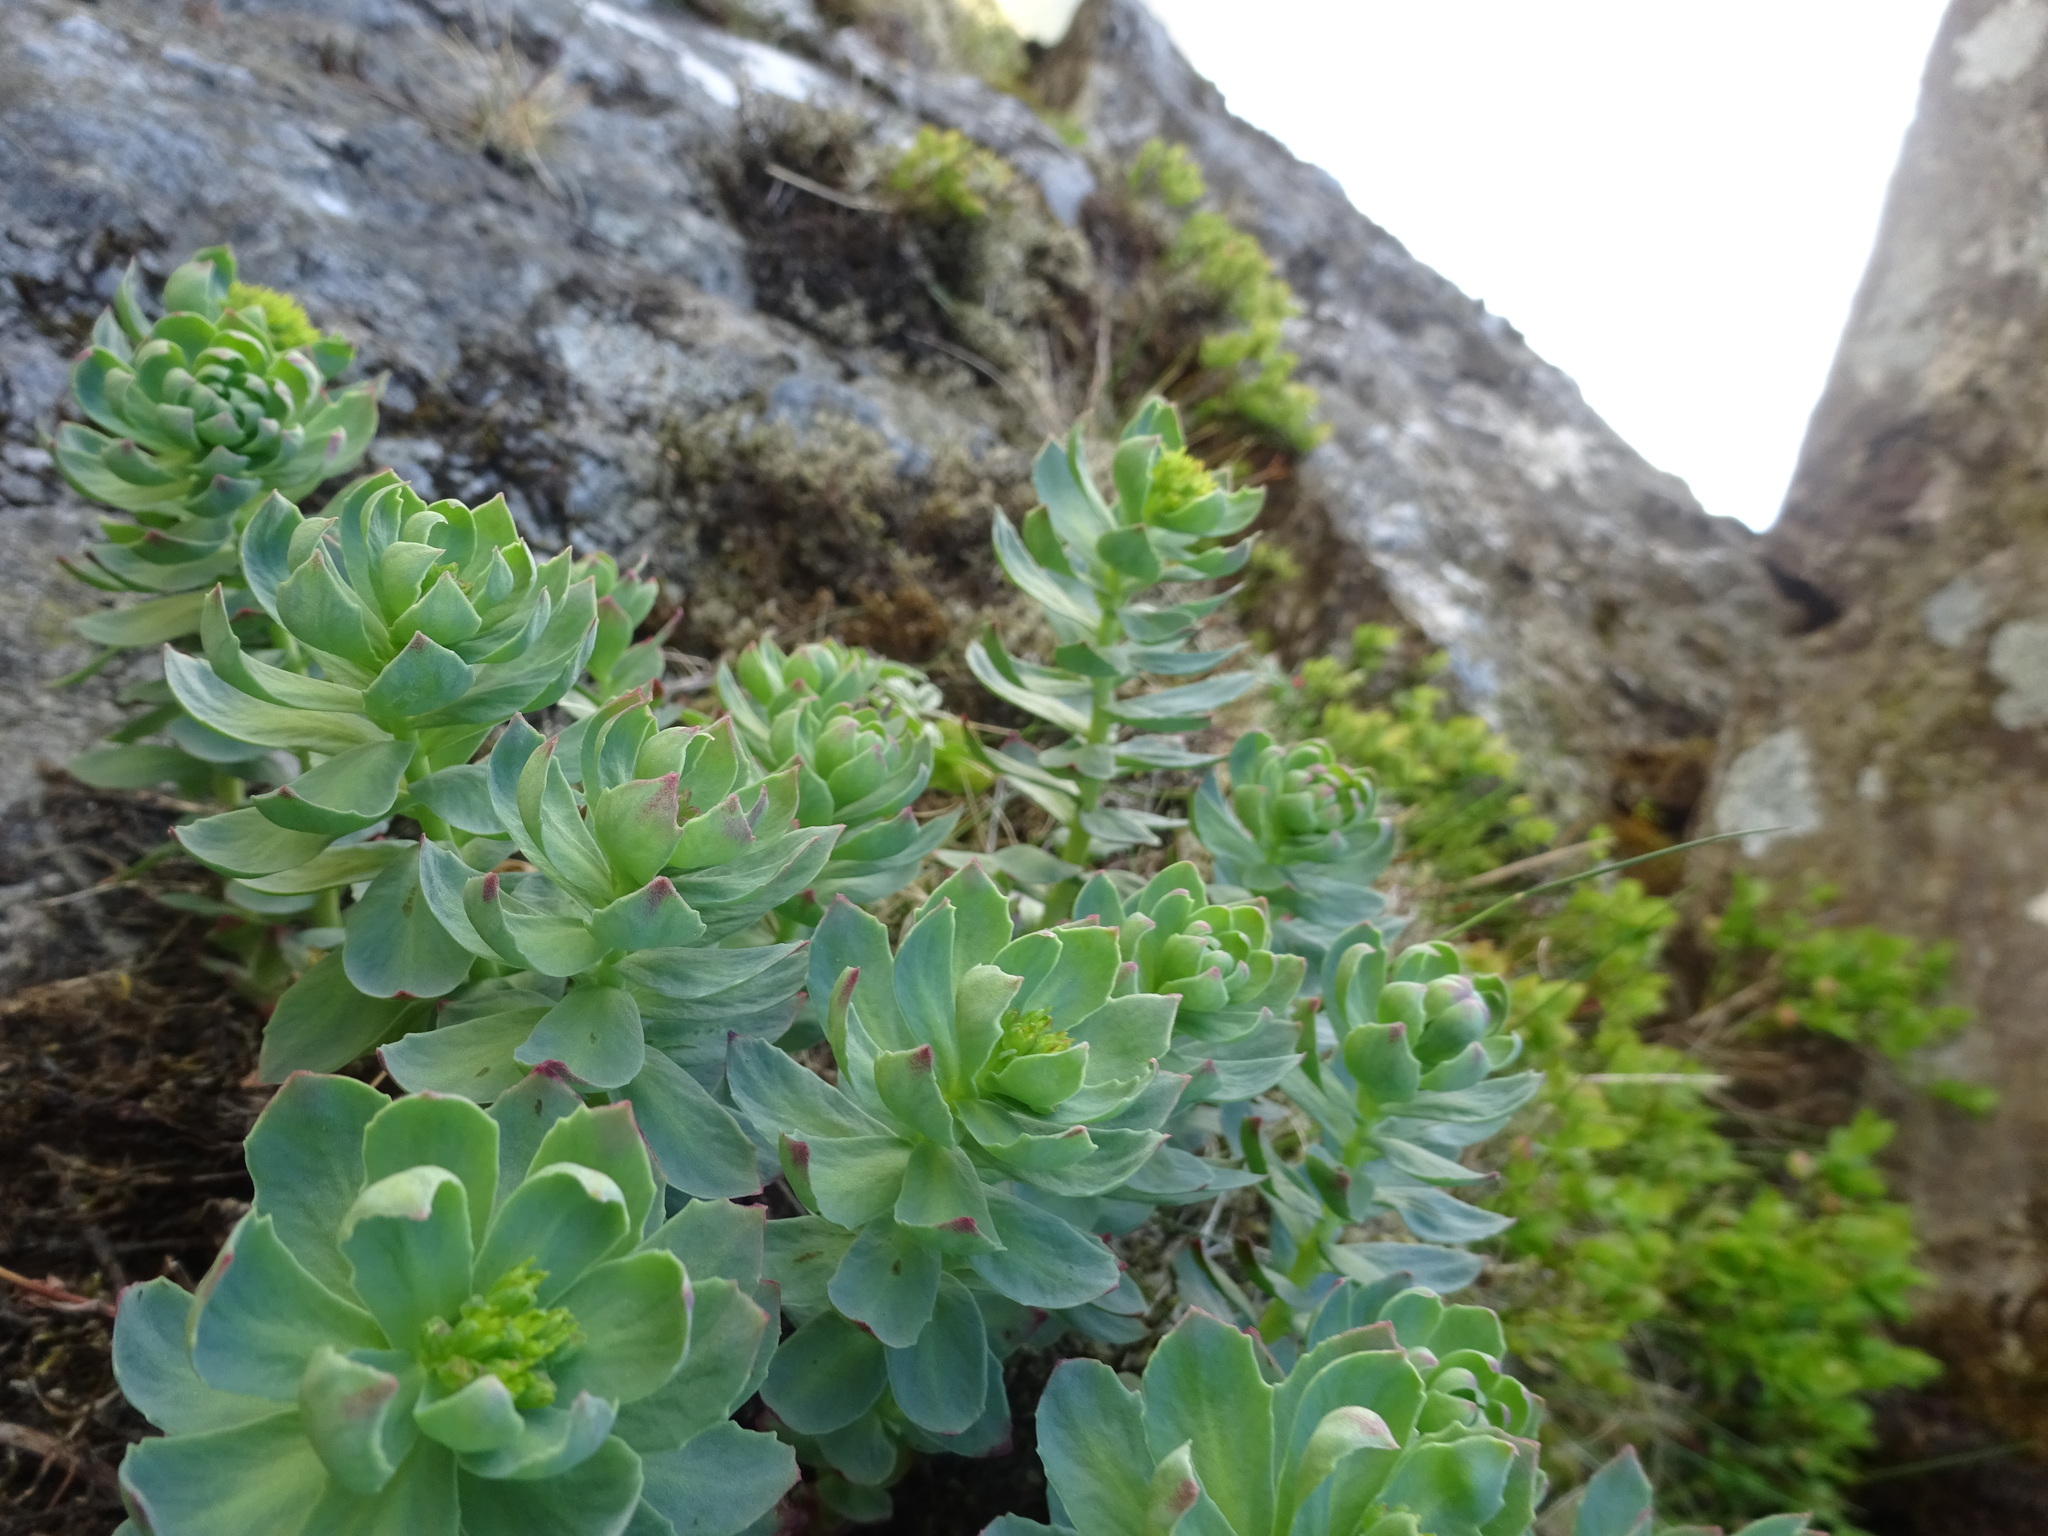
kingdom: Plantae
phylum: Tracheophyta
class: Magnoliopsida
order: Saxifragales
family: Crassulaceae
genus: Rhodiola
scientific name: Rhodiola rosea
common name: Roseroot
